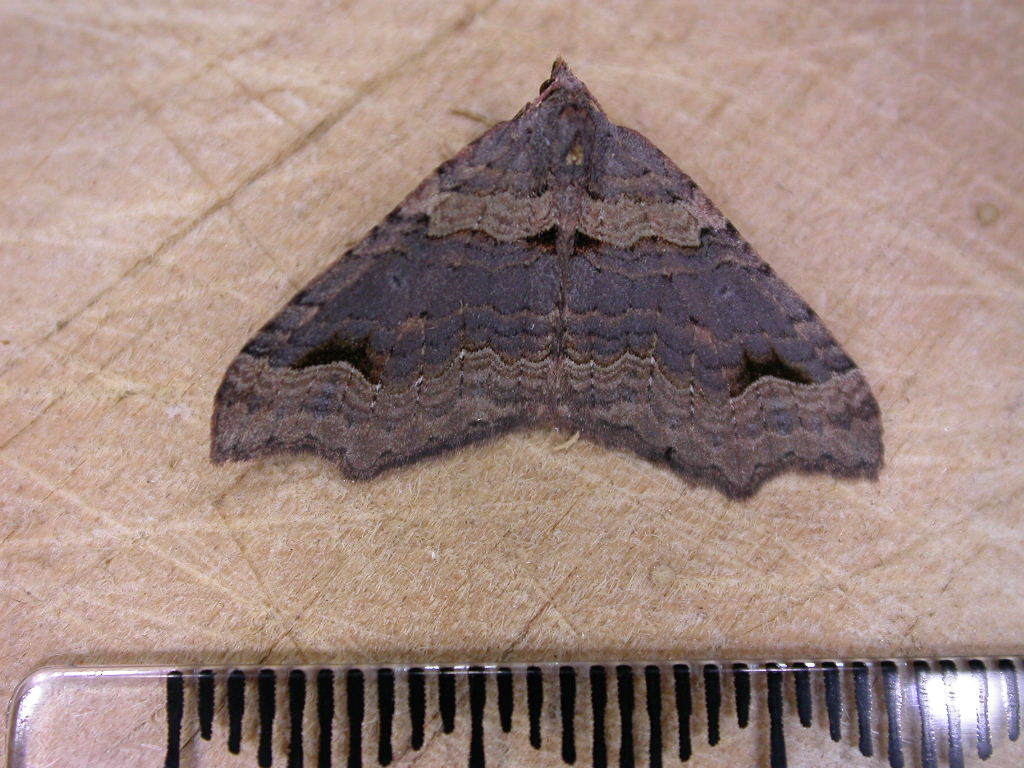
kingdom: Animalia
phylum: Arthropoda
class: Insecta
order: Lepidoptera
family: Geometridae
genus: Austrocidaria
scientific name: Austrocidaria parora
